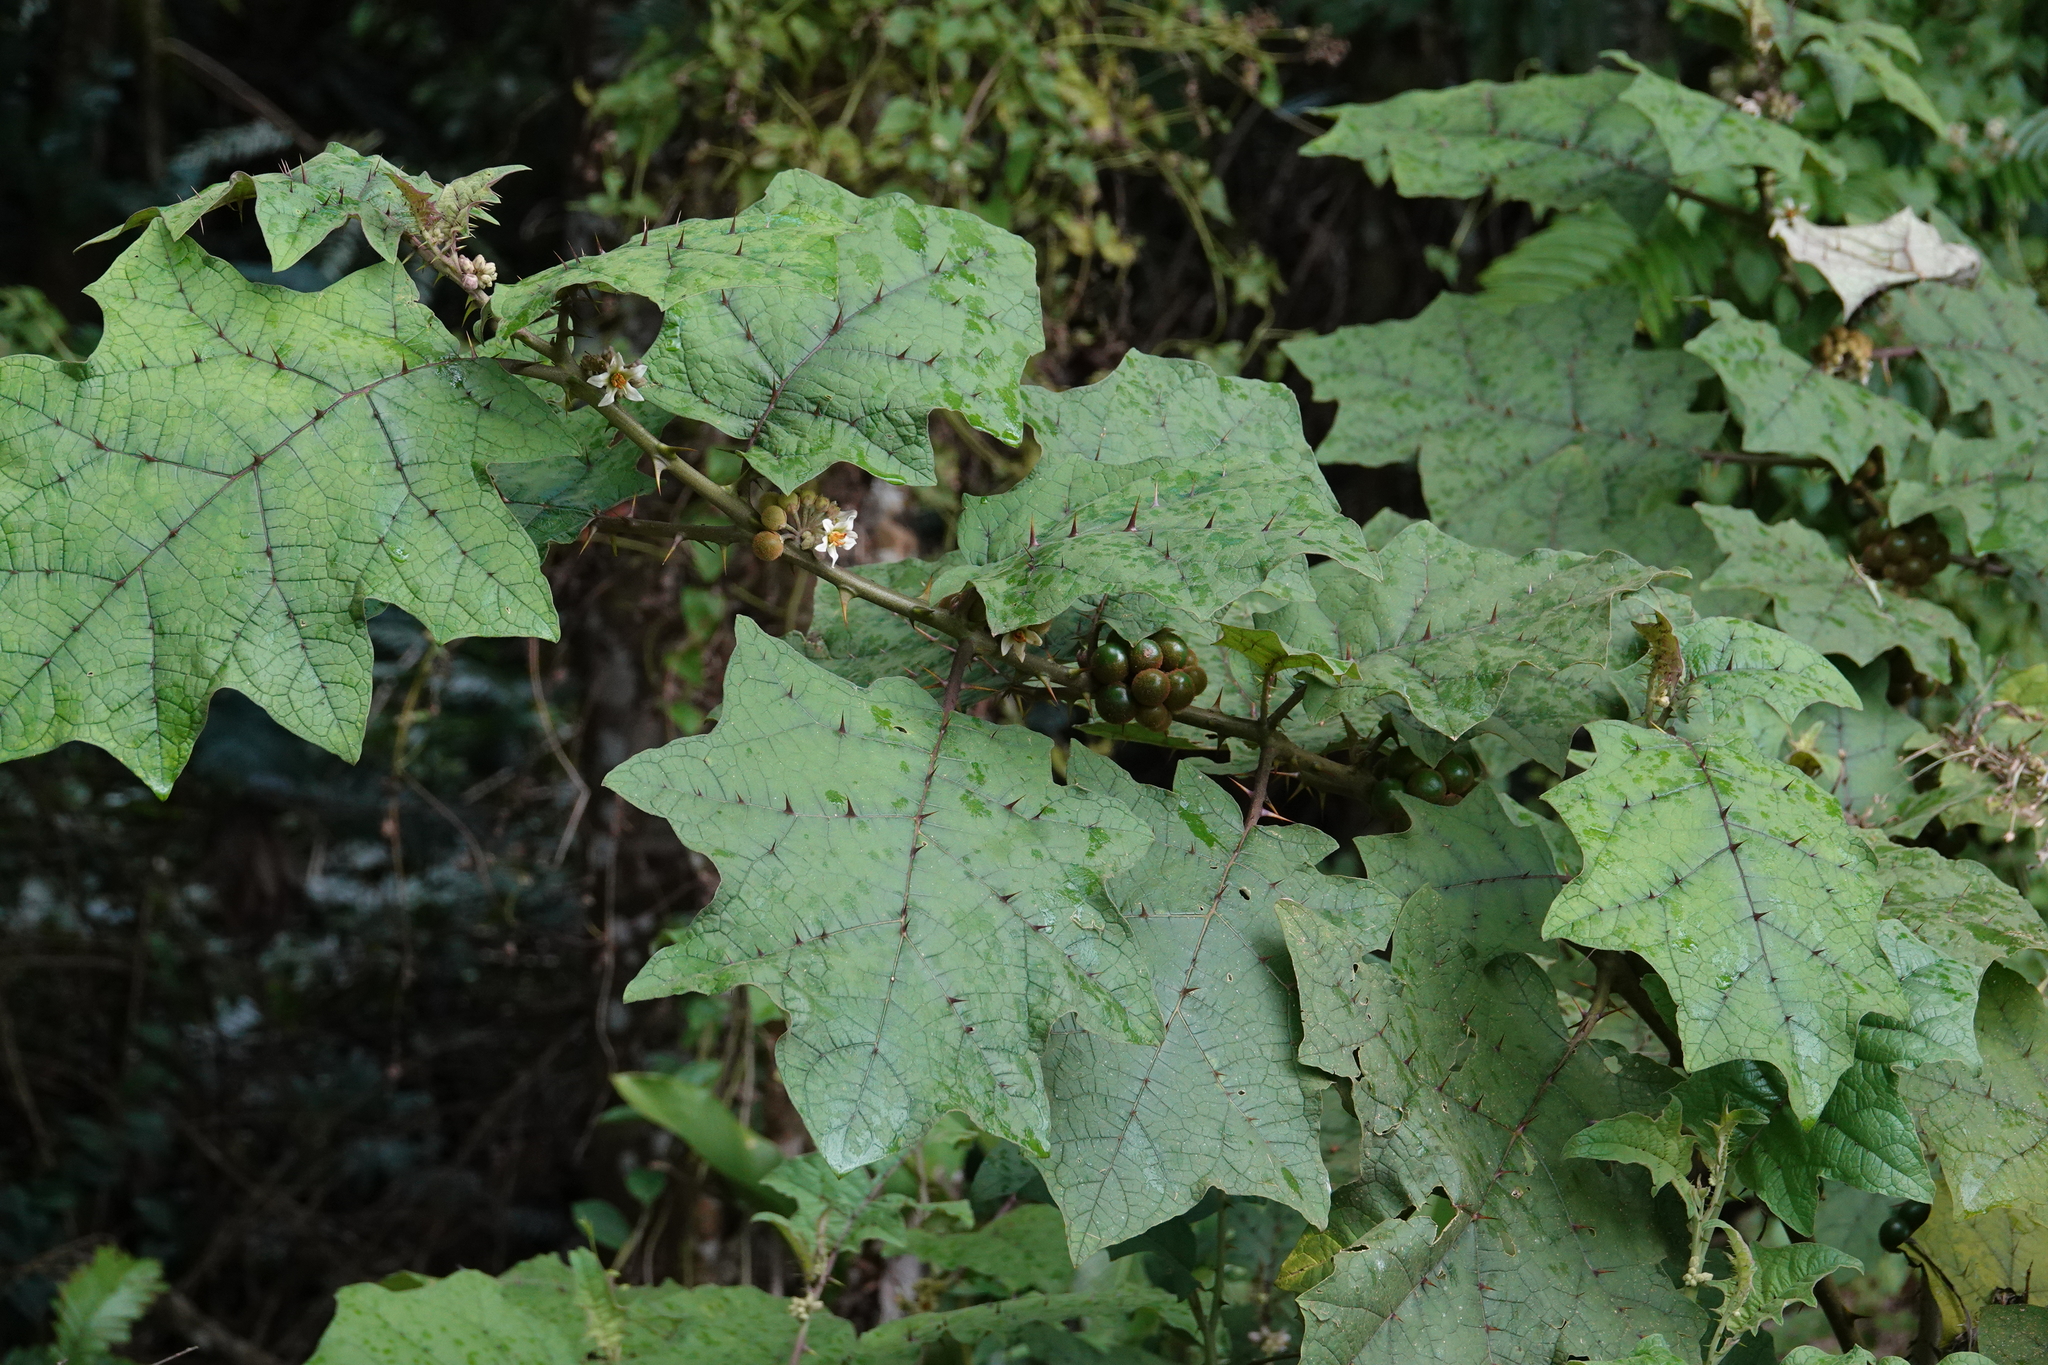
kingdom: Plantae
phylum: Tracheophyta
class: Magnoliopsida
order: Solanales
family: Solanaceae
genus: Solanum
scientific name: Solanum
